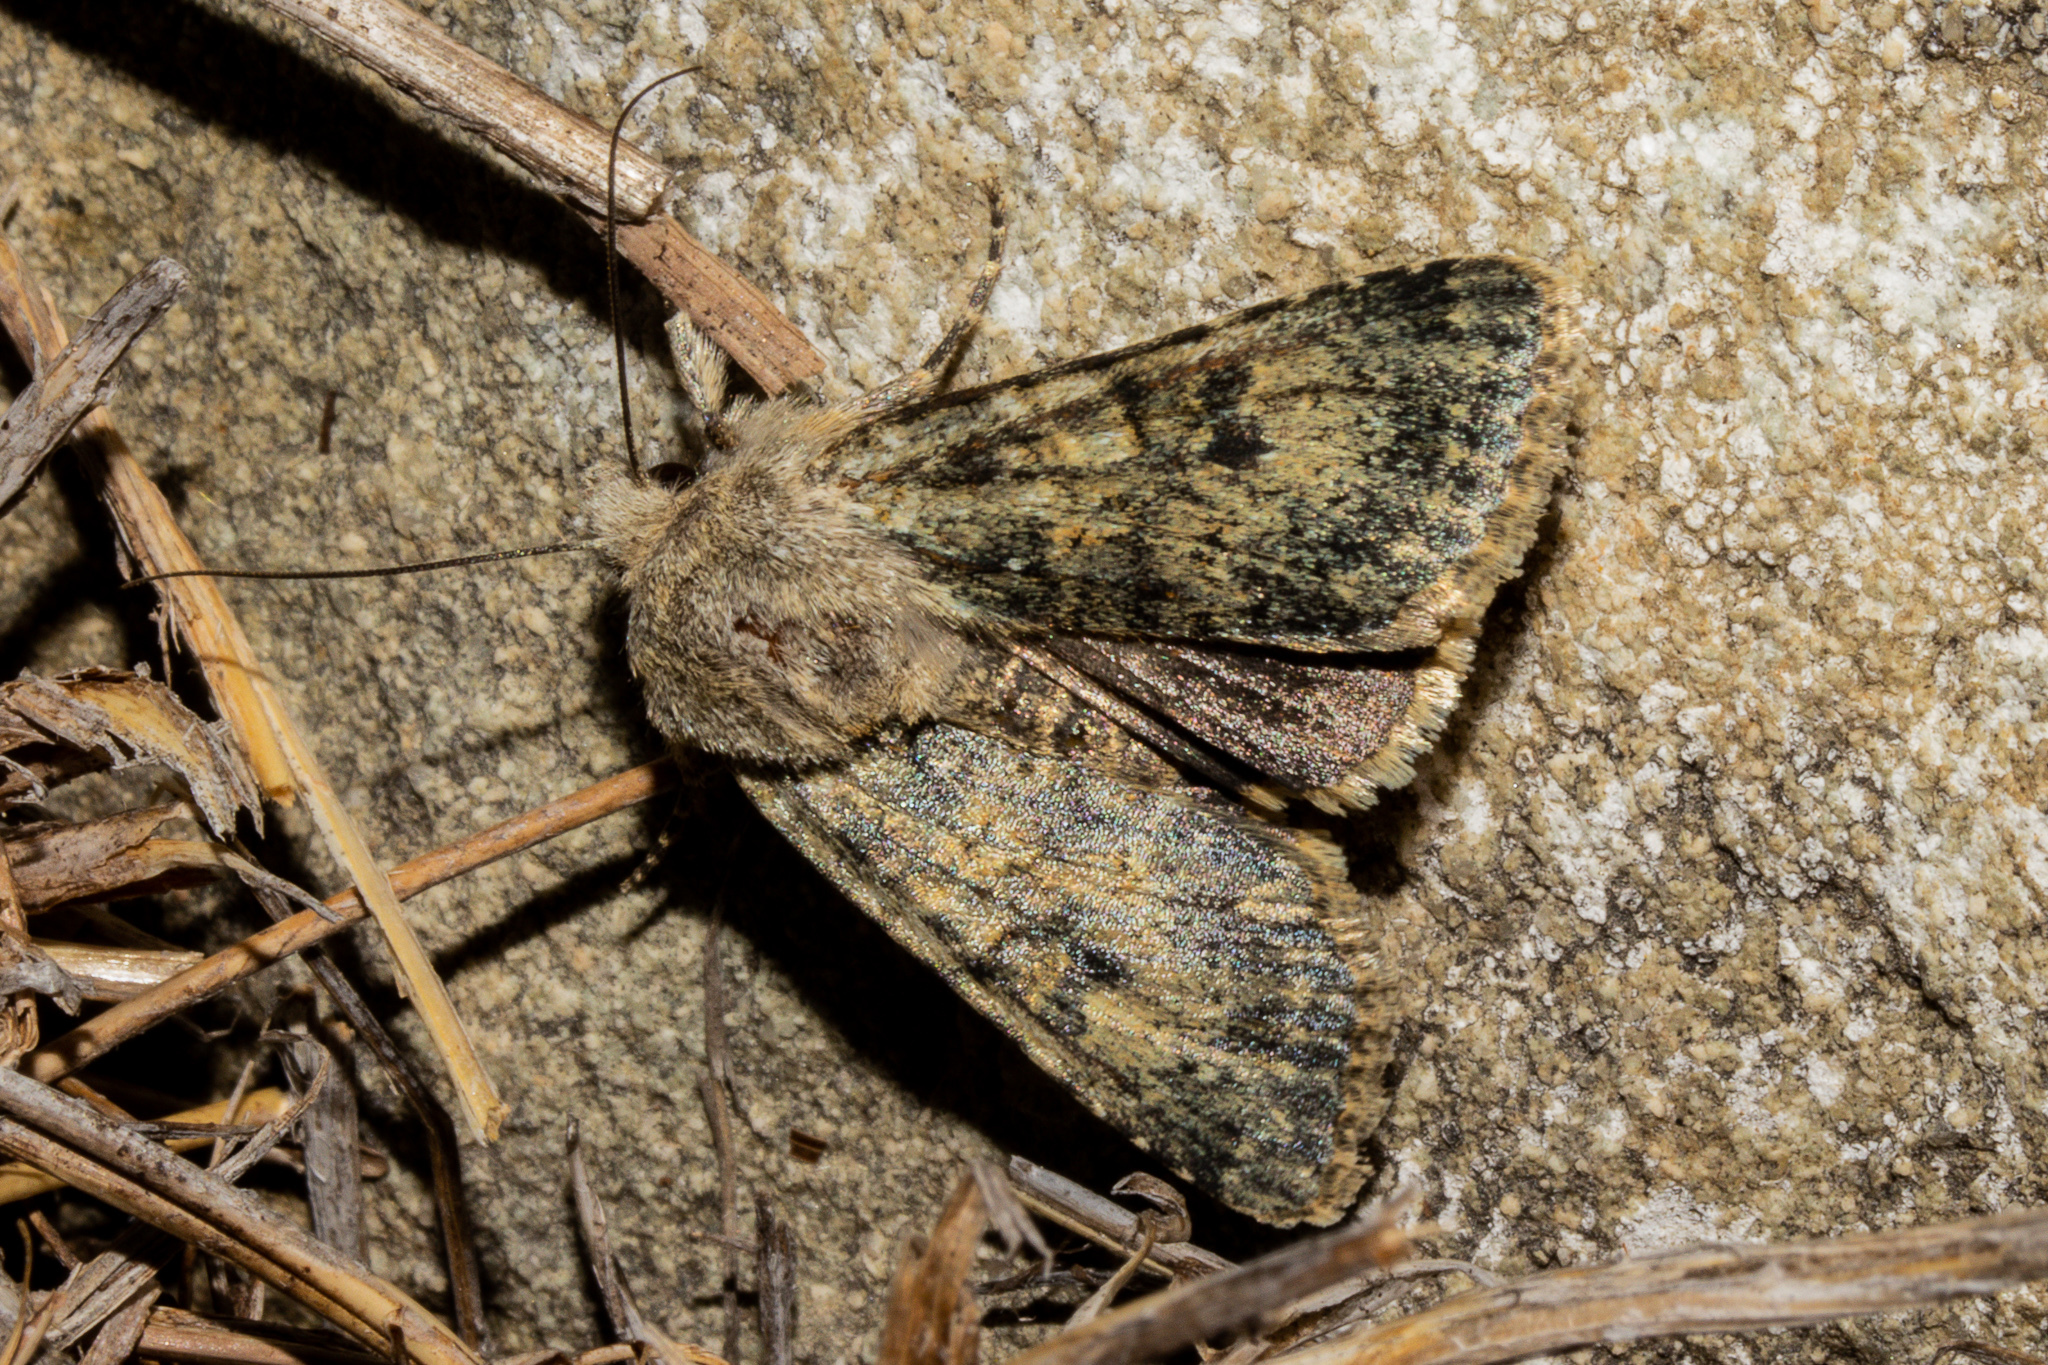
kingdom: Animalia
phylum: Arthropoda
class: Insecta
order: Lepidoptera
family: Noctuidae
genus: Ichneutica
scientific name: Ichneutica cuneata
